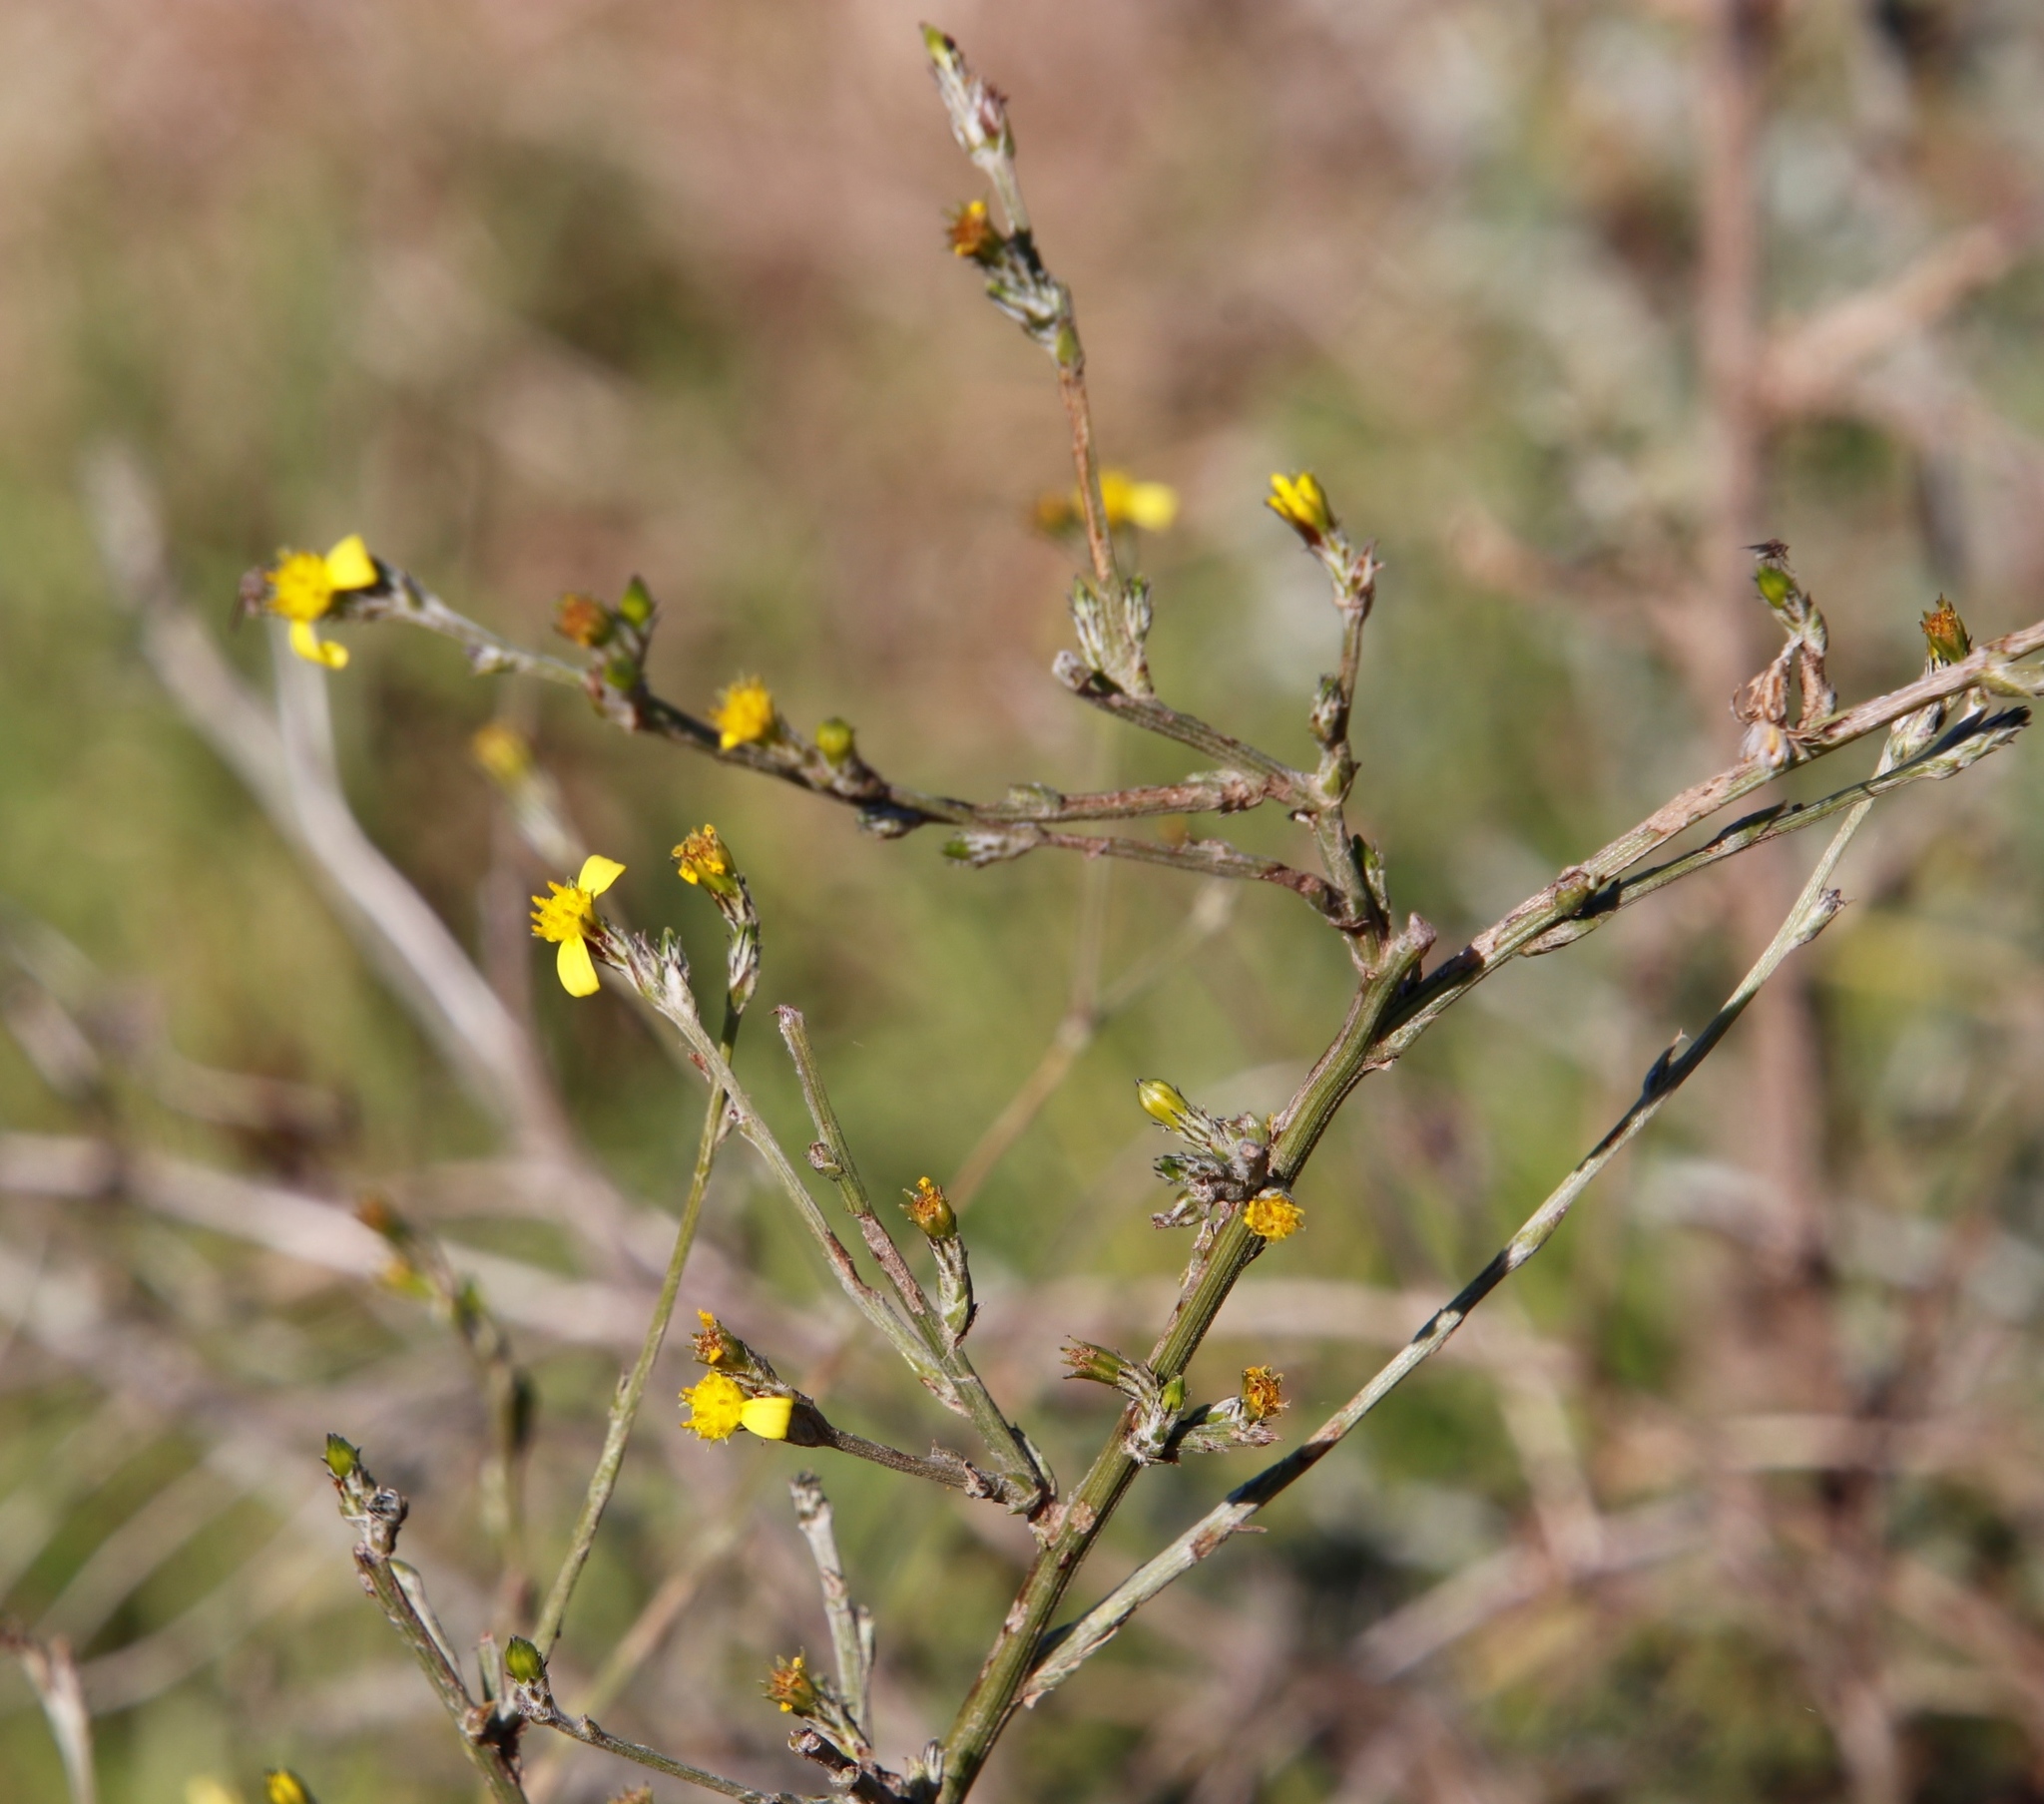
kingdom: Plantae
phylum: Tracheophyta
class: Magnoliopsida
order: Asterales
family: Asteraceae
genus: Senecio
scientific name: Senecio pubigerus
